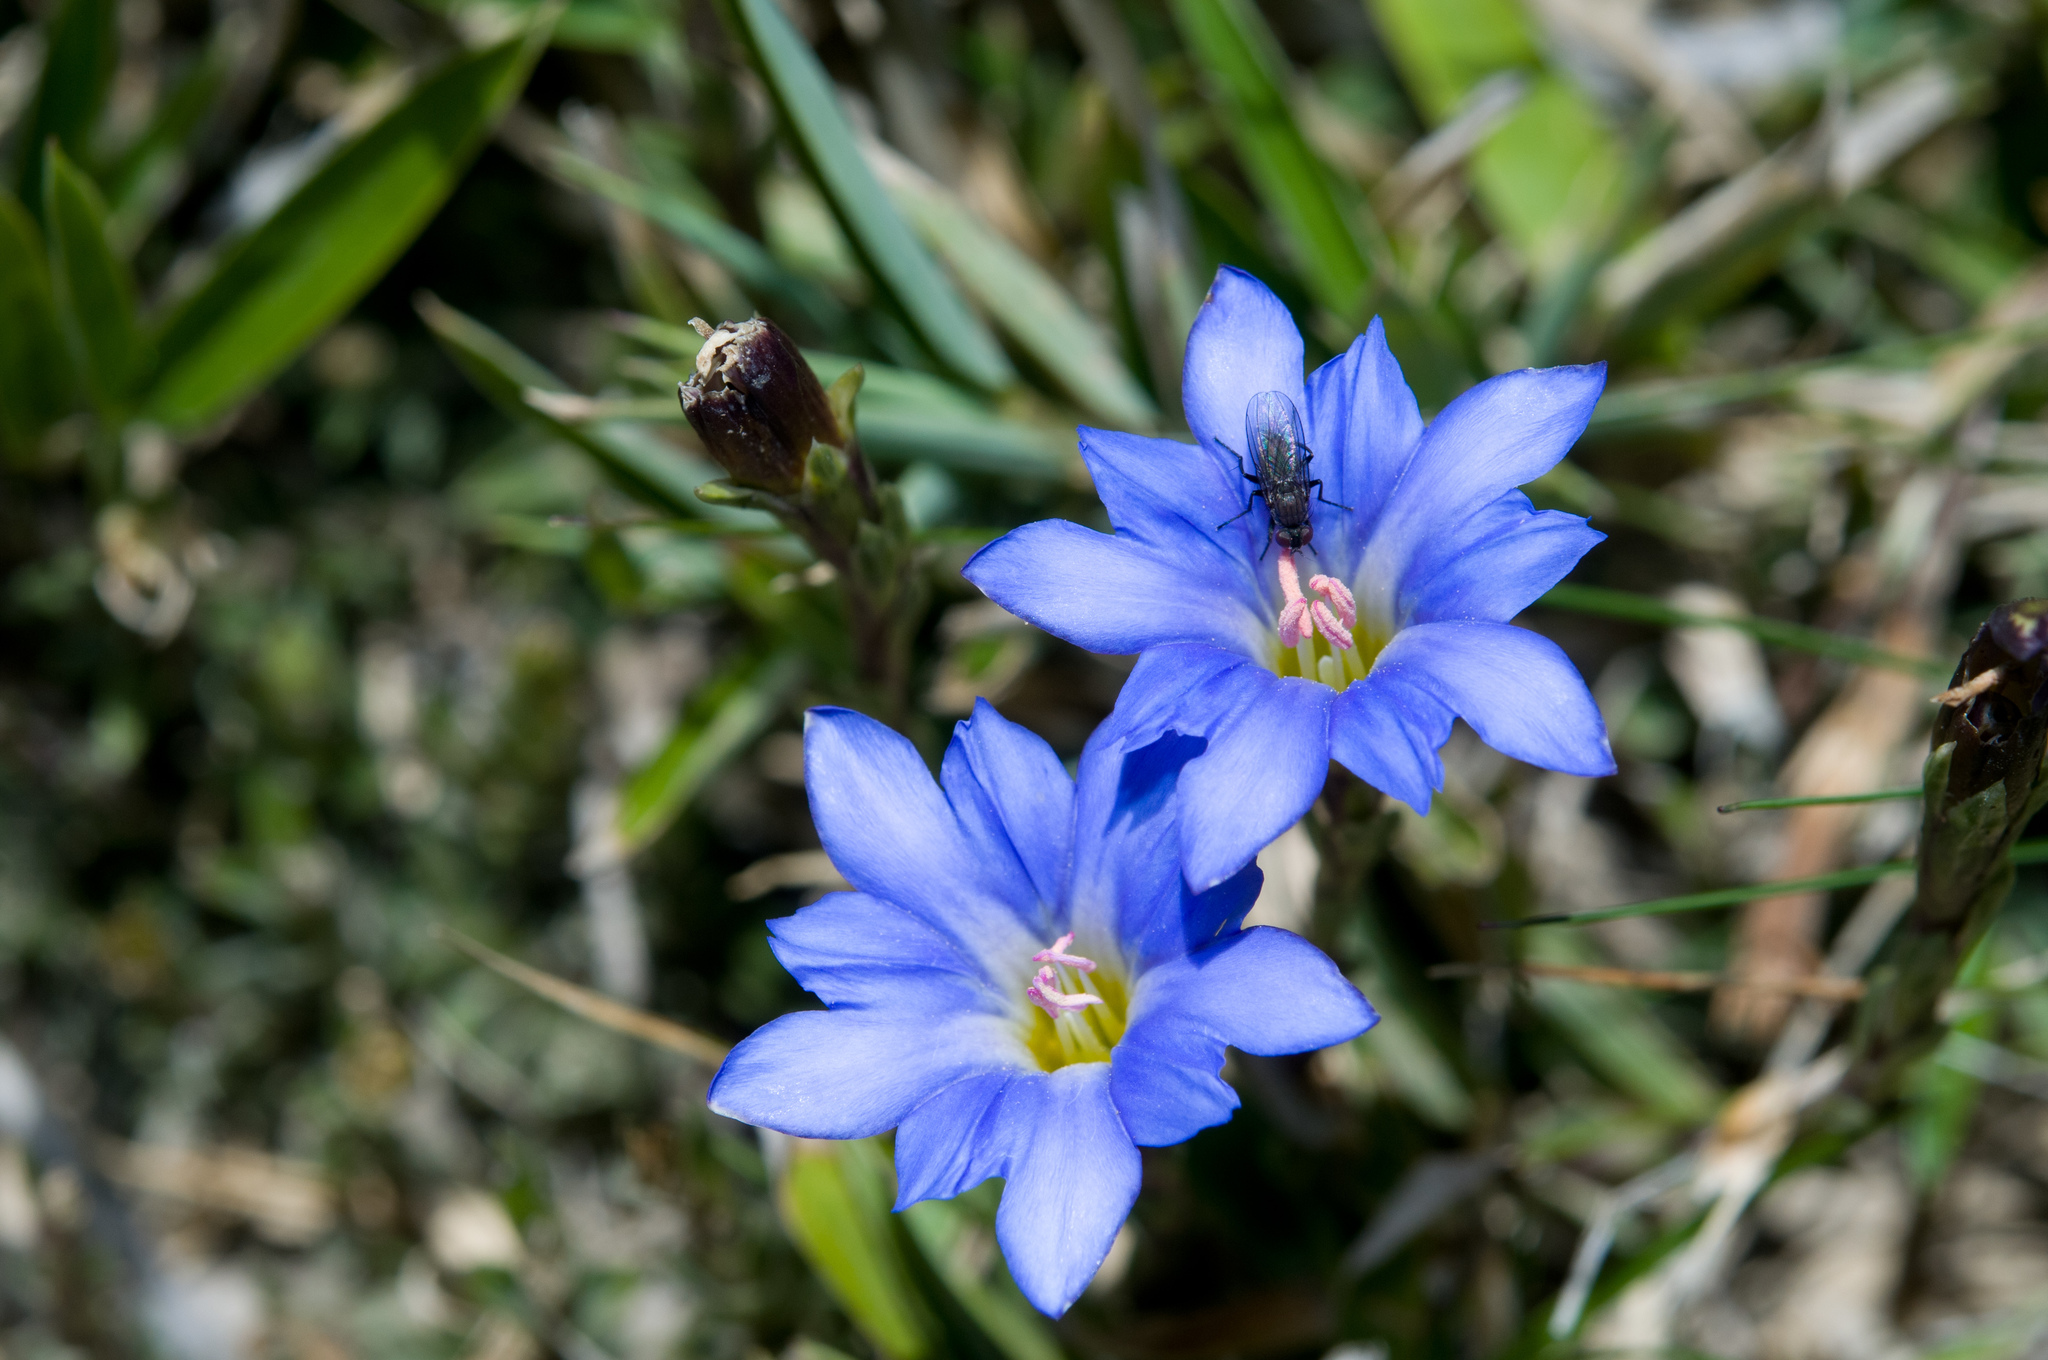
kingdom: Plantae
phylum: Tracheophyta
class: Magnoliopsida
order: Gentianales
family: Gentianaceae
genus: Gentiana
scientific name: Gentiana arisanensis
